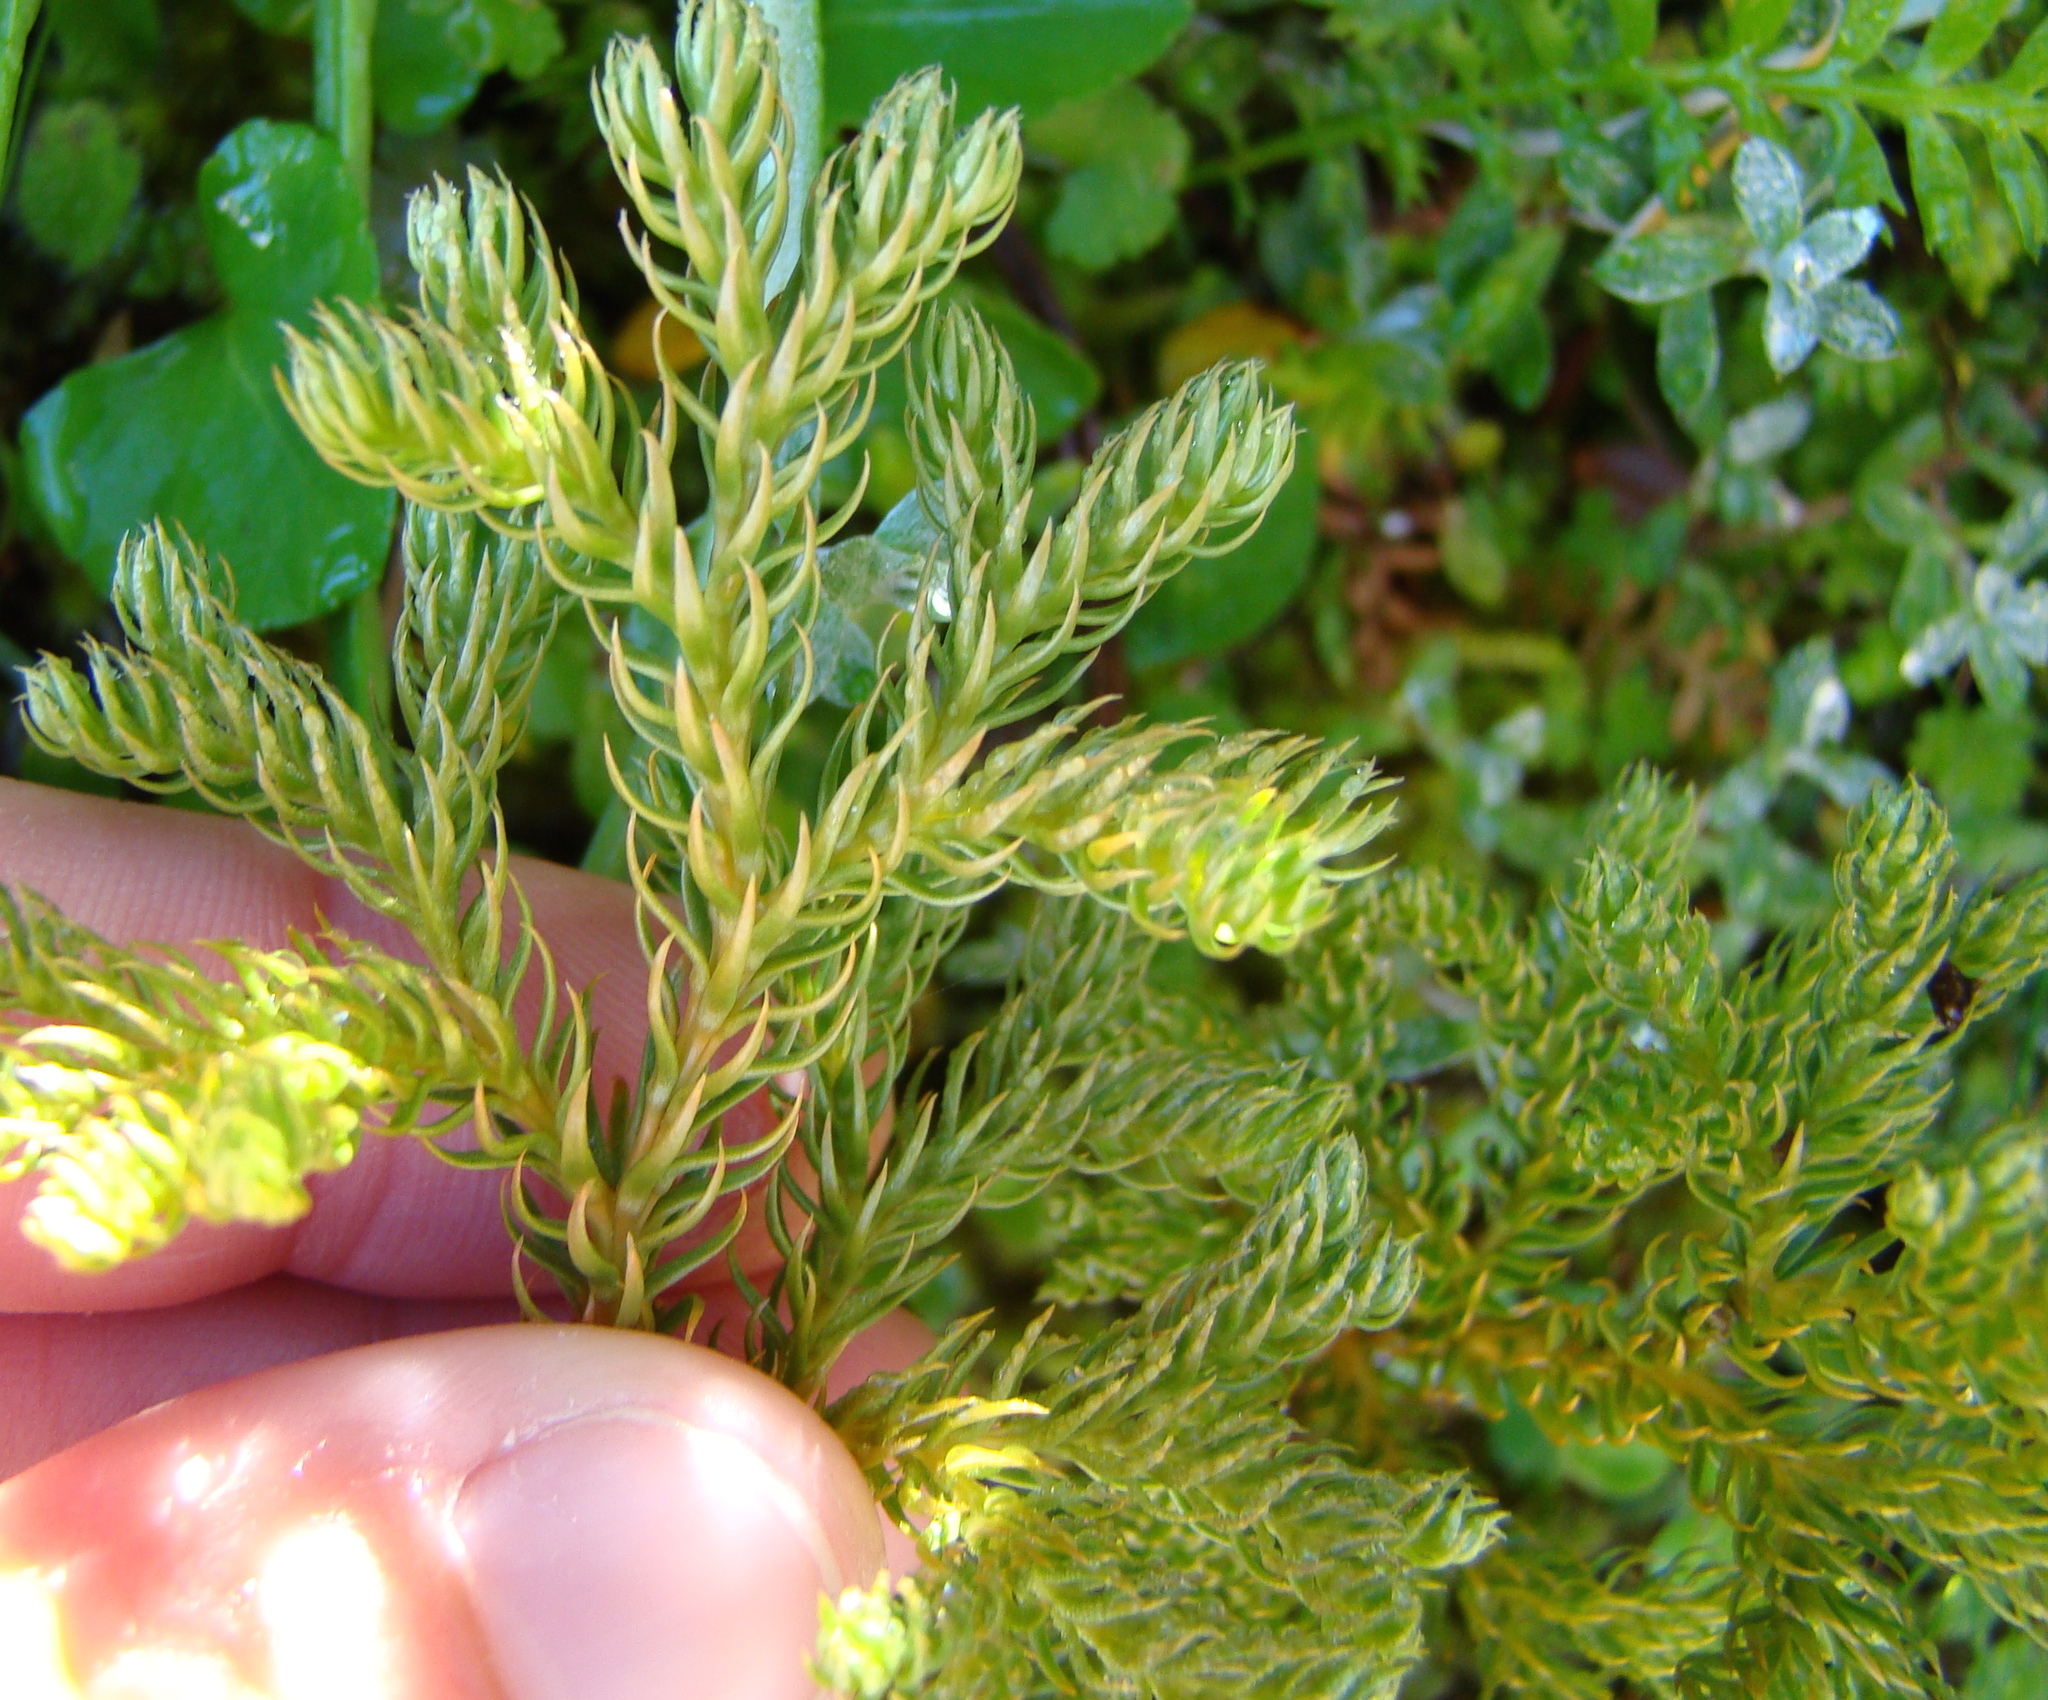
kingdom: Plantae
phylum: Tracheophyta
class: Lycopodiopsida
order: Lycopodiales
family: Lycopodiaceae
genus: Austrolycopodium
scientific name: Austrolycopodium fastigiatum
